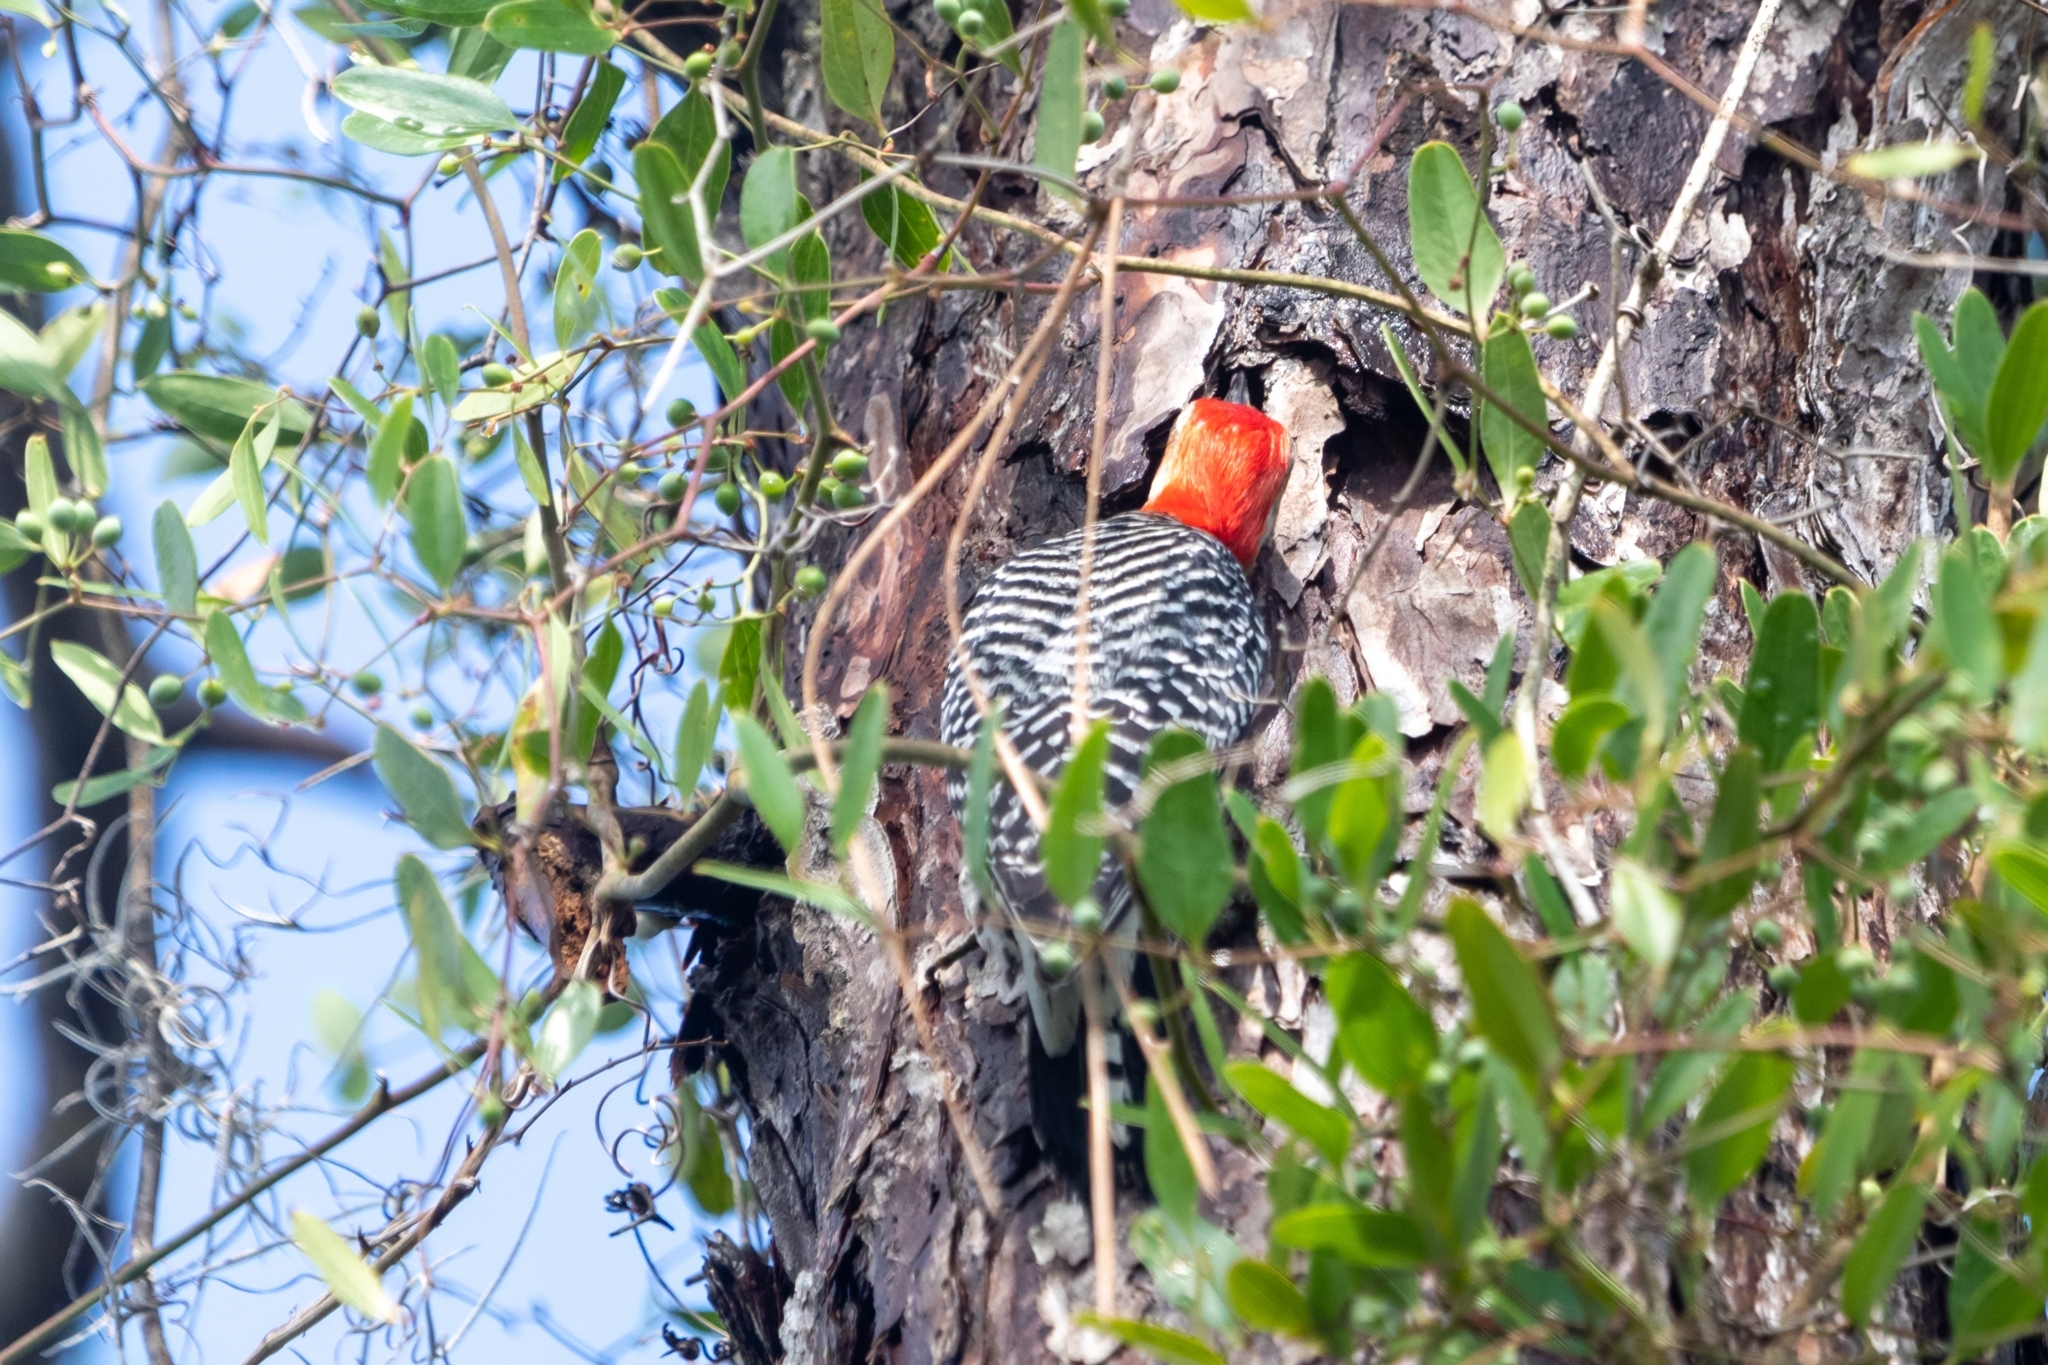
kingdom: Animalia
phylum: Chordata
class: Aves
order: Piciformes
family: Picidae
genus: Melanerpes
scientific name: Melanerpes carolinus
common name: Red-bellied woodpecker
